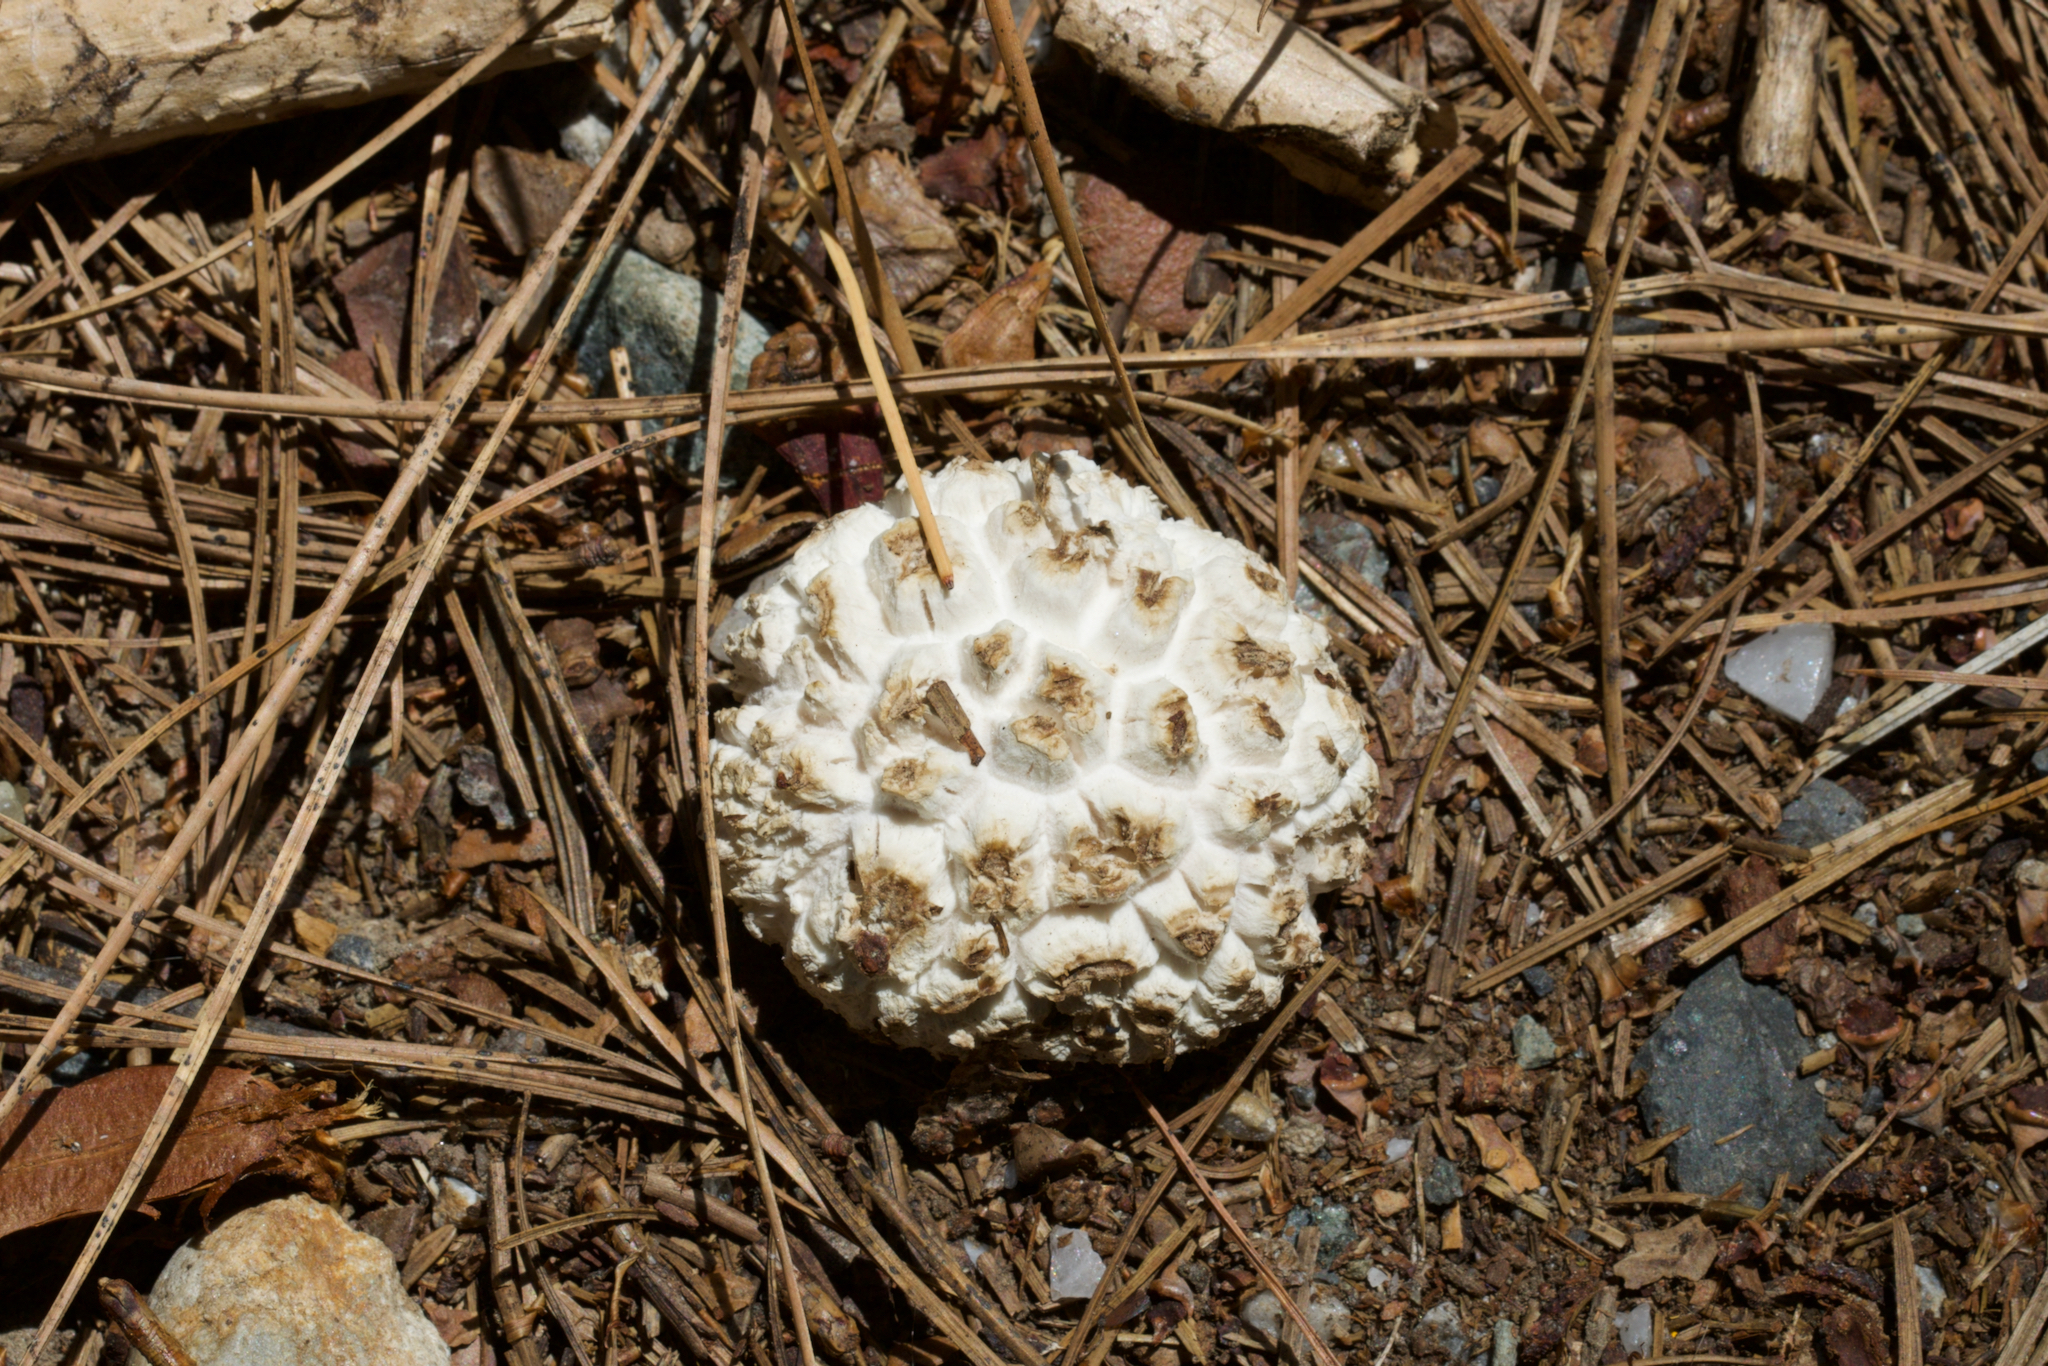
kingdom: Fungi
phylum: Basidiomycota
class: Agaricomycetes
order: Agaricales
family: Lycoperdaceae
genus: Calvatia
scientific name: Calvatia sculpta
